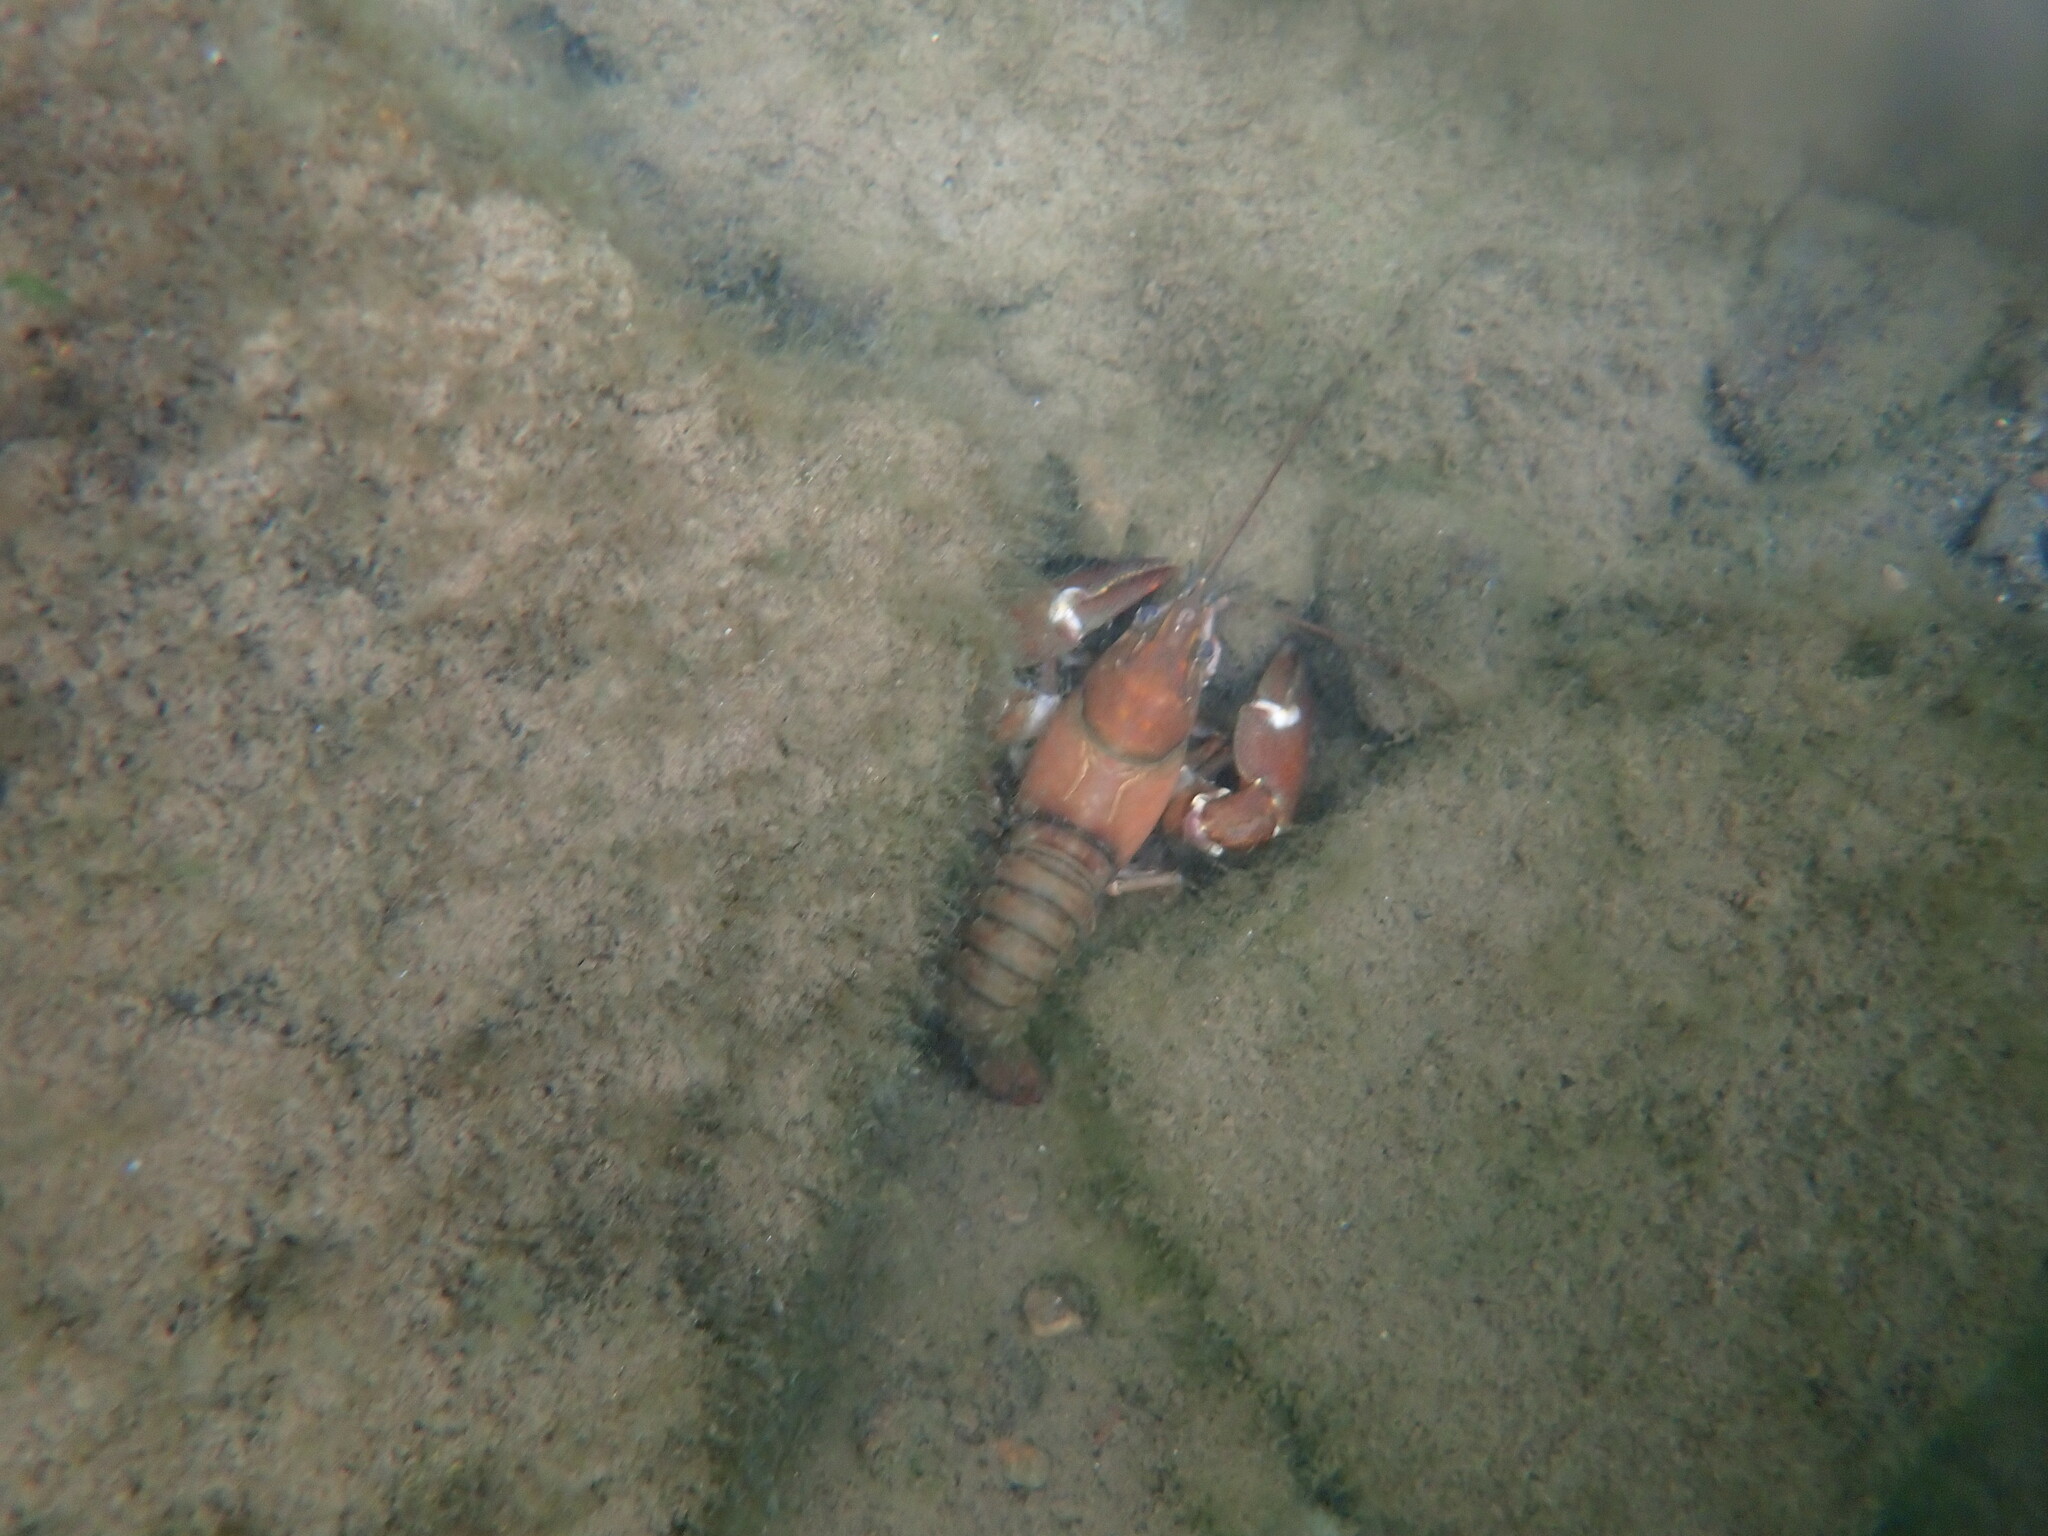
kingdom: Animalia
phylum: Arthropoda
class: Malacostraca
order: Decapoda
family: Astacidae
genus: Pacifastacus
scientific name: Pacifastacus leniusculus
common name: Signal crayfish
